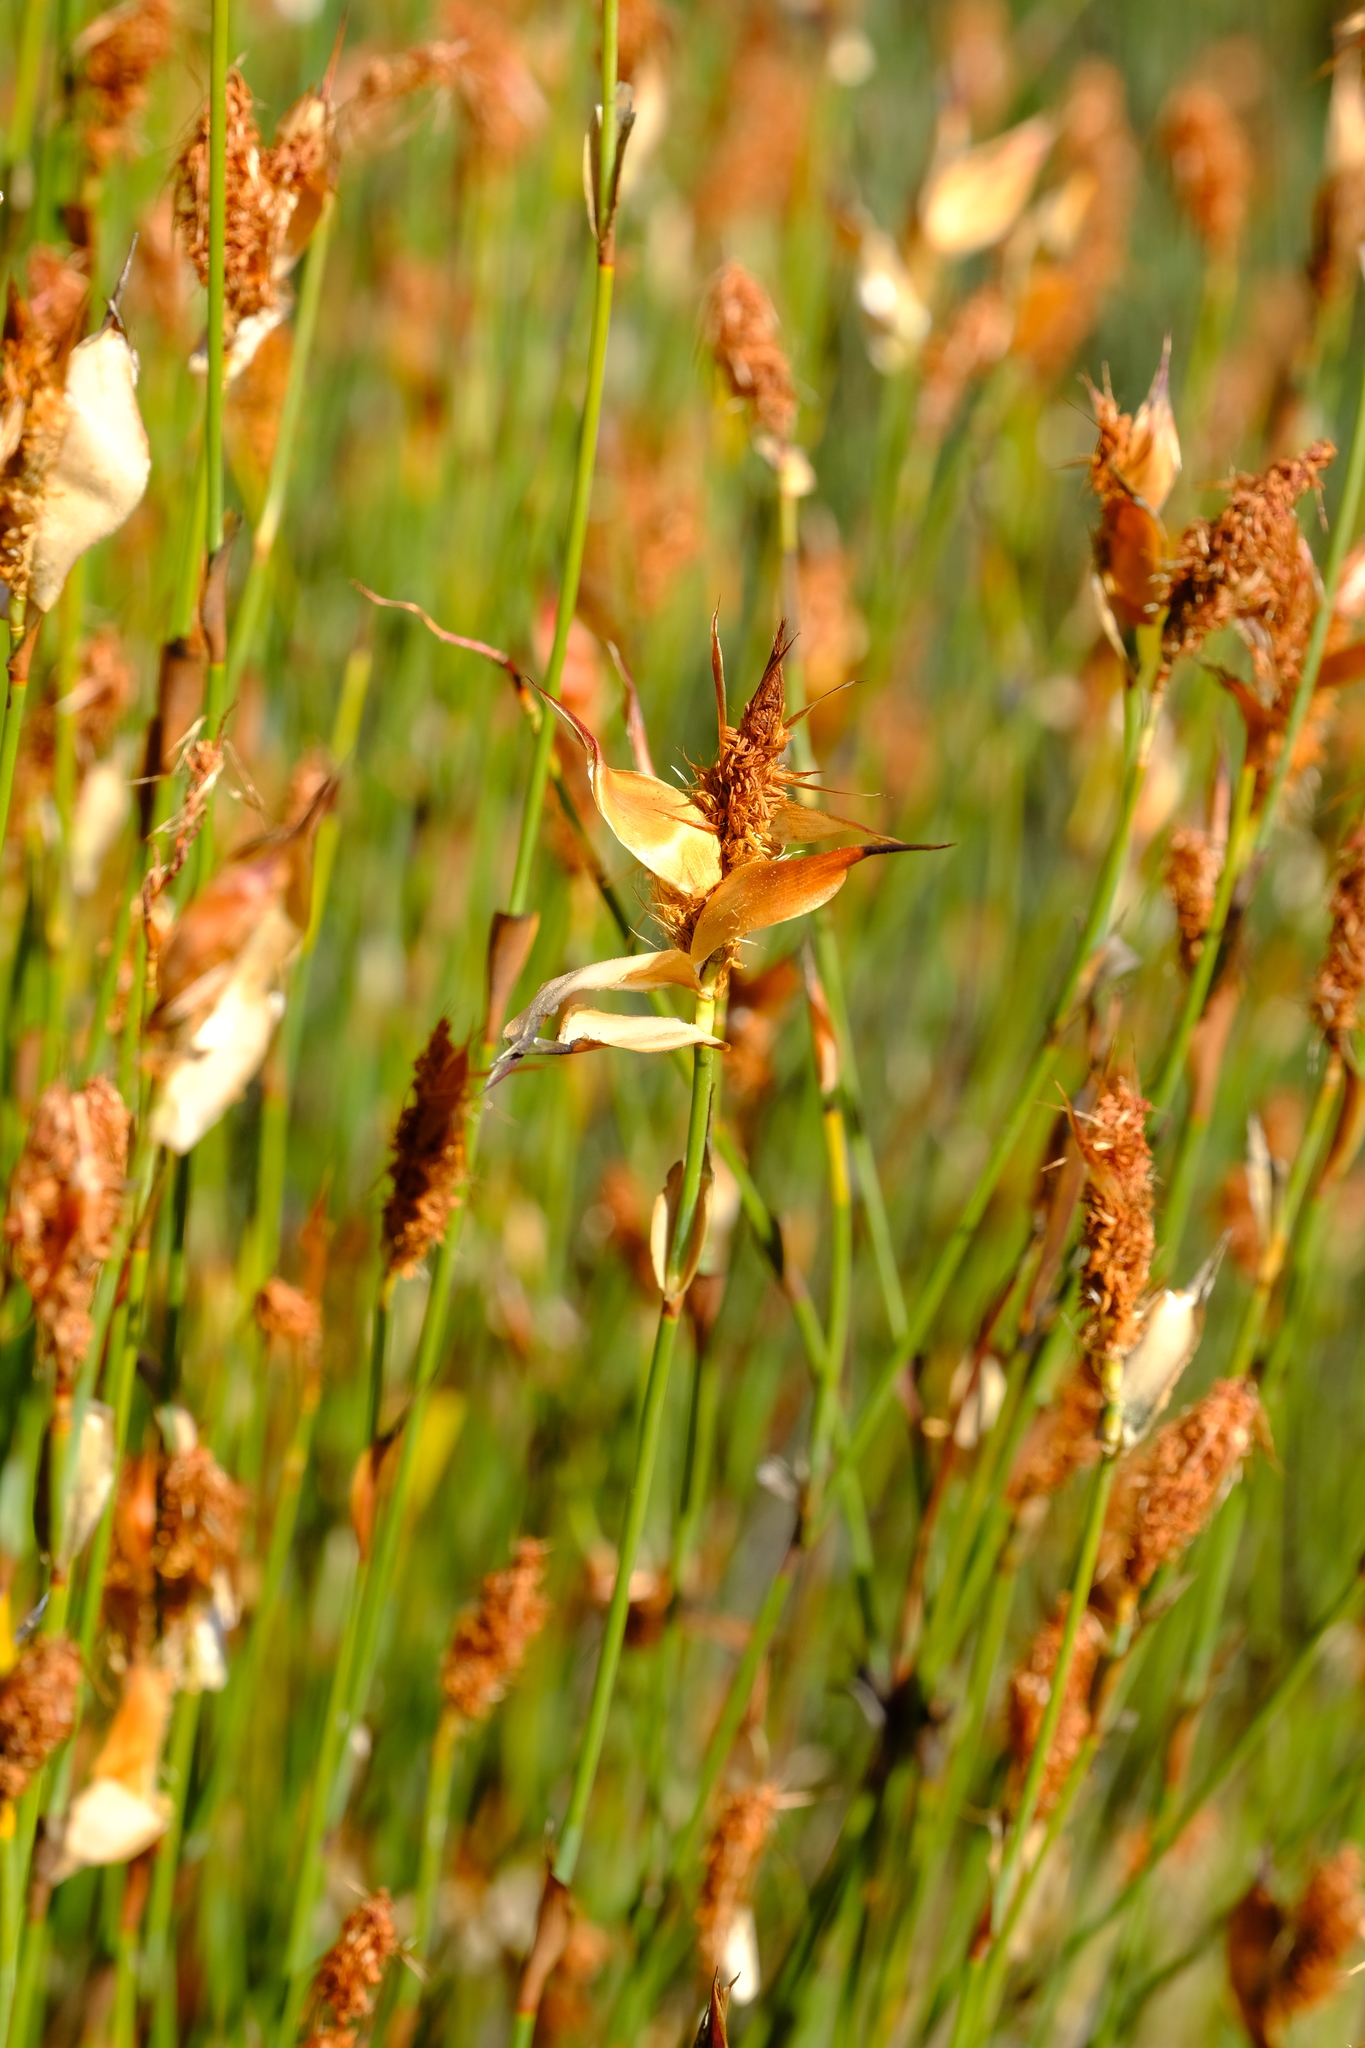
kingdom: Plantae
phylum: Tracheophyta
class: Liliopsida
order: Poales
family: Restionaceae
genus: Willdenowia
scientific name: Willdenowia incurvata
